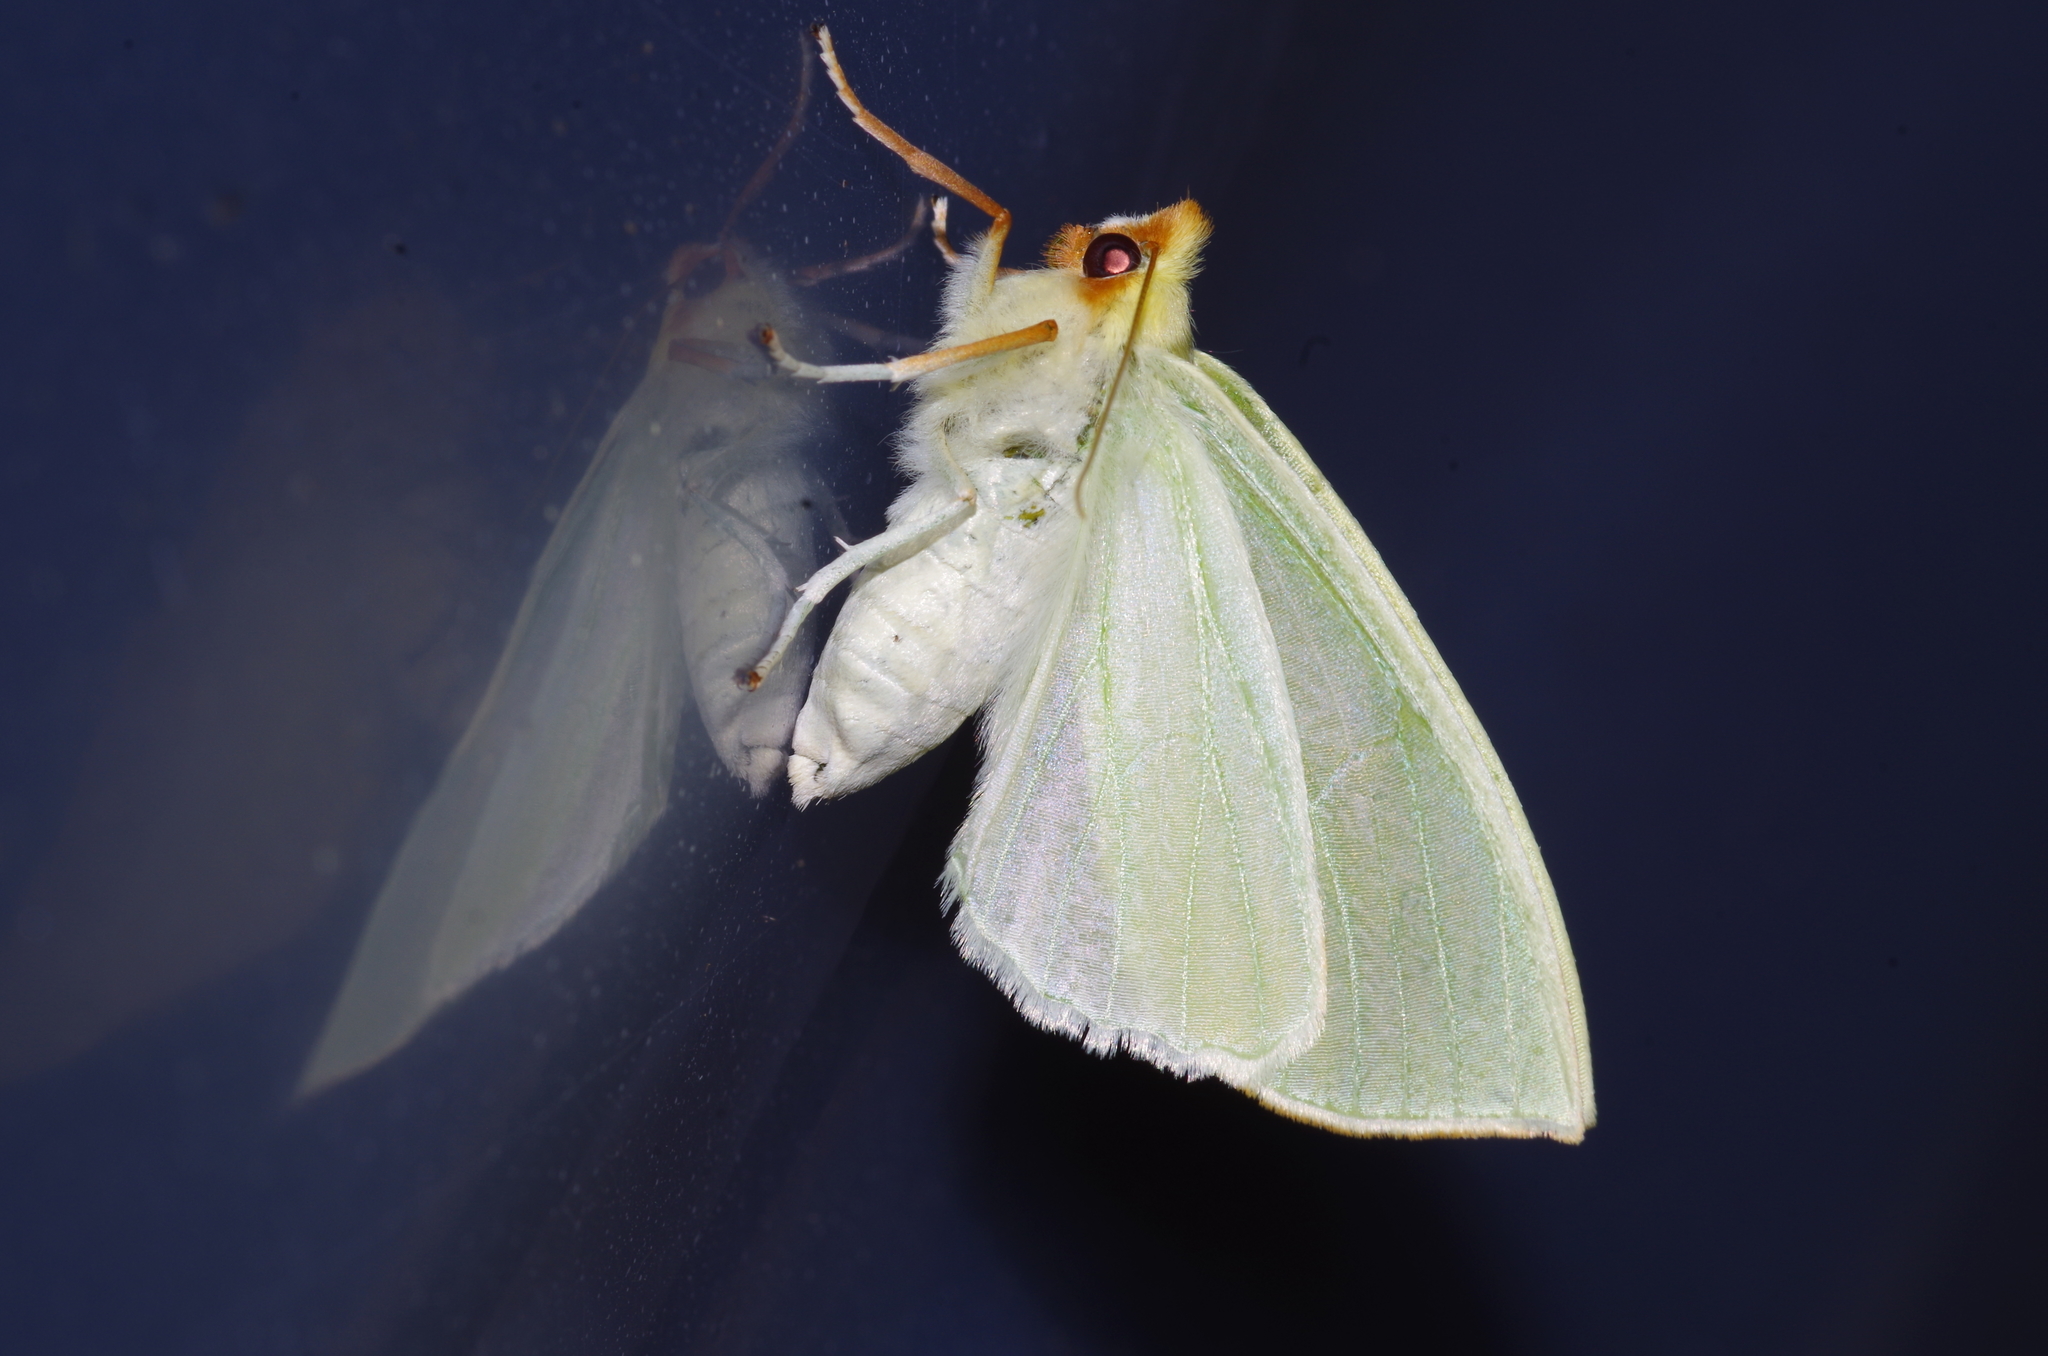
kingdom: Animalia
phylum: Arthropoda
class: Insecta
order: Lepidoptera
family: Geometridae
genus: Doratoptera
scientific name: Doratoptera amabilis
